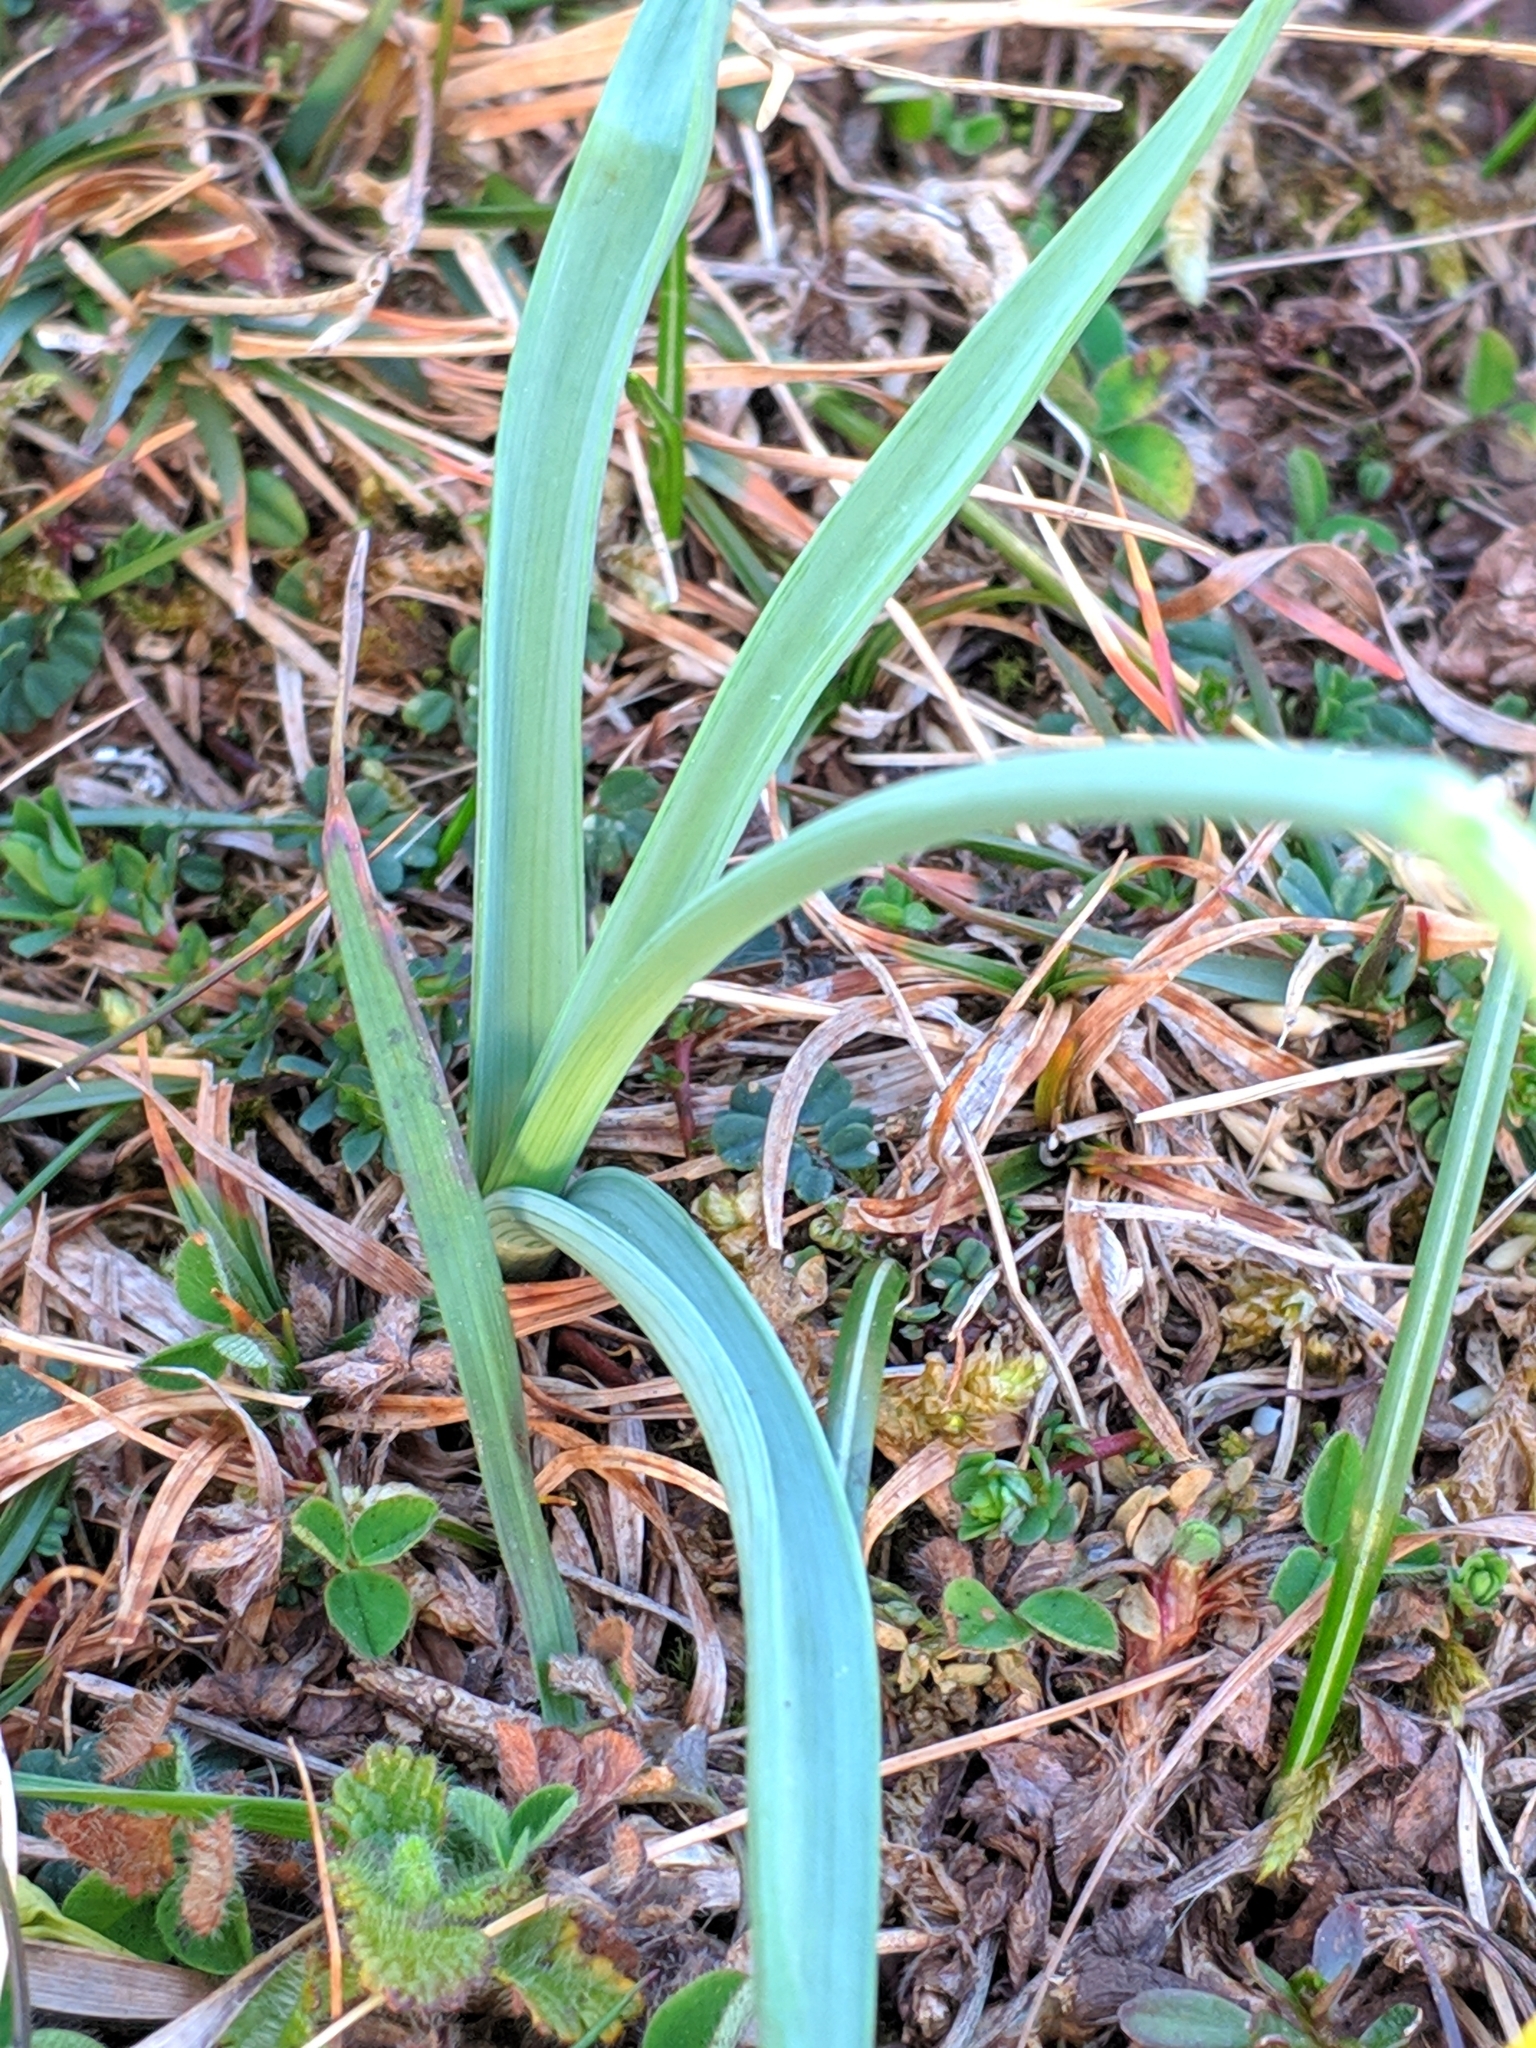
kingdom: Plantae
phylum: Tracheophyta
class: Liliopsida
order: Asparagales
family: Amaryllidaceae
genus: Narcissus
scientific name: Narcissus cuneiflorus
